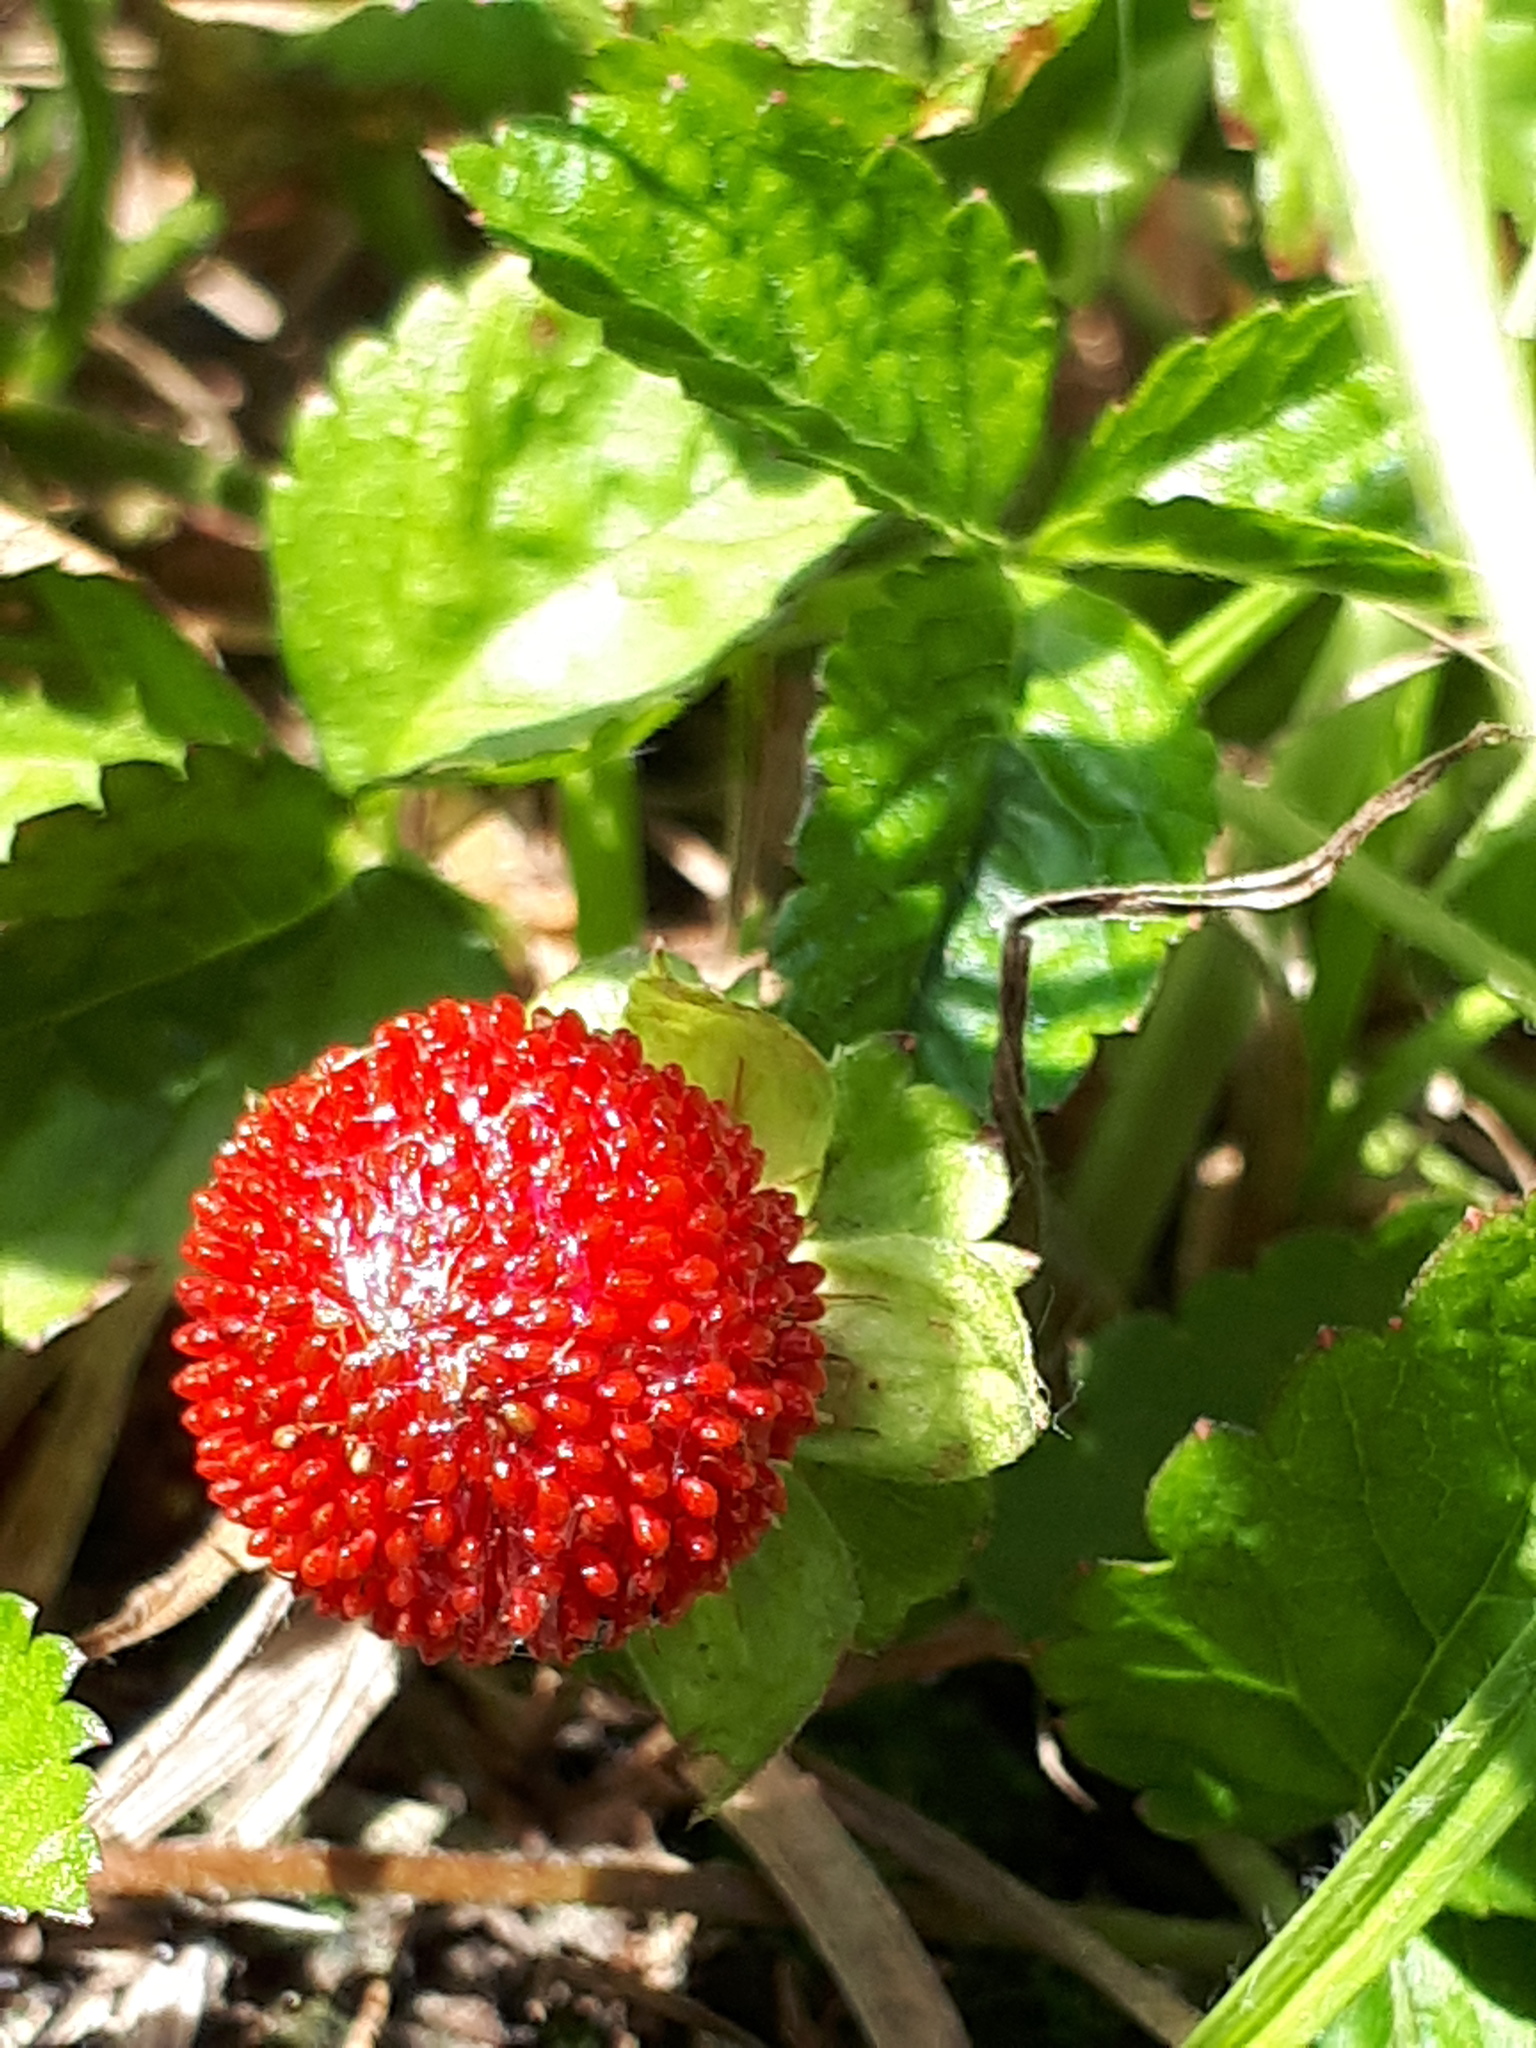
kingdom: Plantae
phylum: Tracheophyta
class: Magnoliopsida
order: Rosales
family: Rosaceae
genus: Potentilla
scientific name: Potentilla indica
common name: Yellow-flowered strawberry
